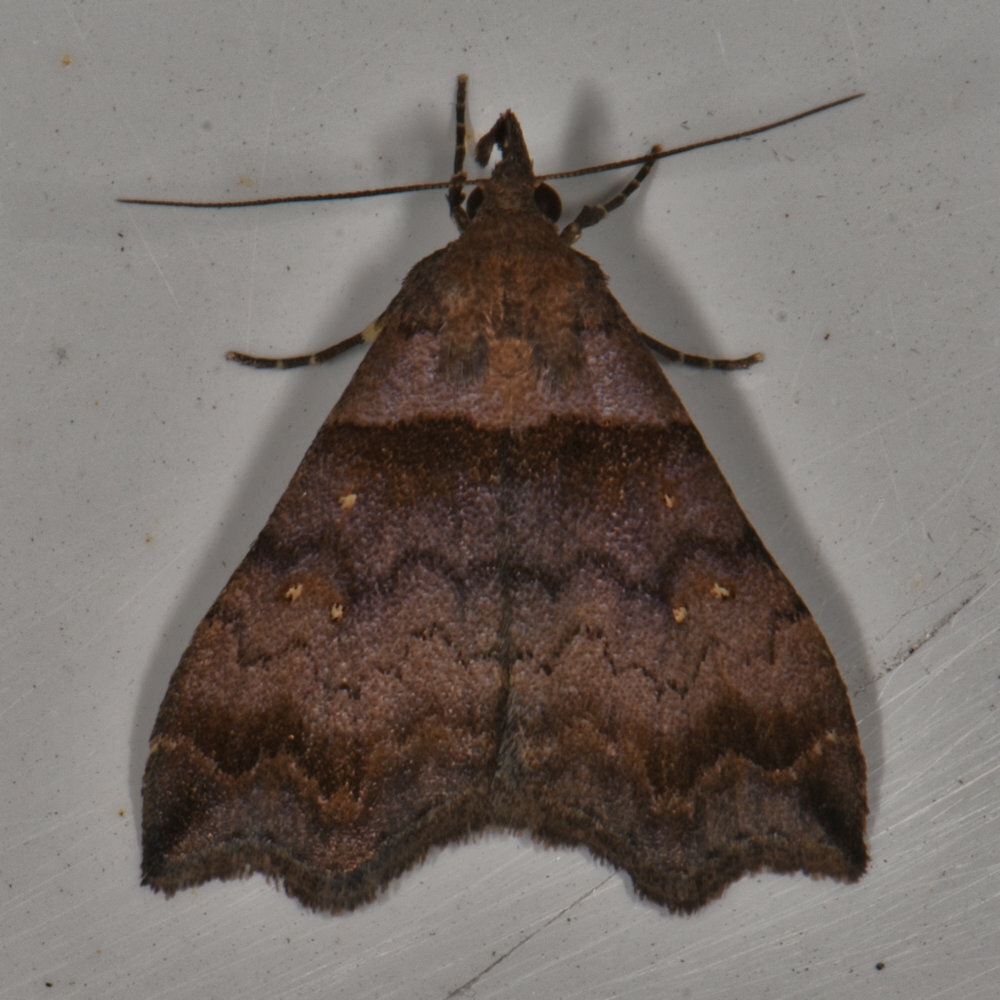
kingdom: Animalia
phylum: Arthropoda
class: Insecta
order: Lepidoptera
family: Erebidae
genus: Lascoria
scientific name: Lascoria ambigualis
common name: Ambiguous moth
